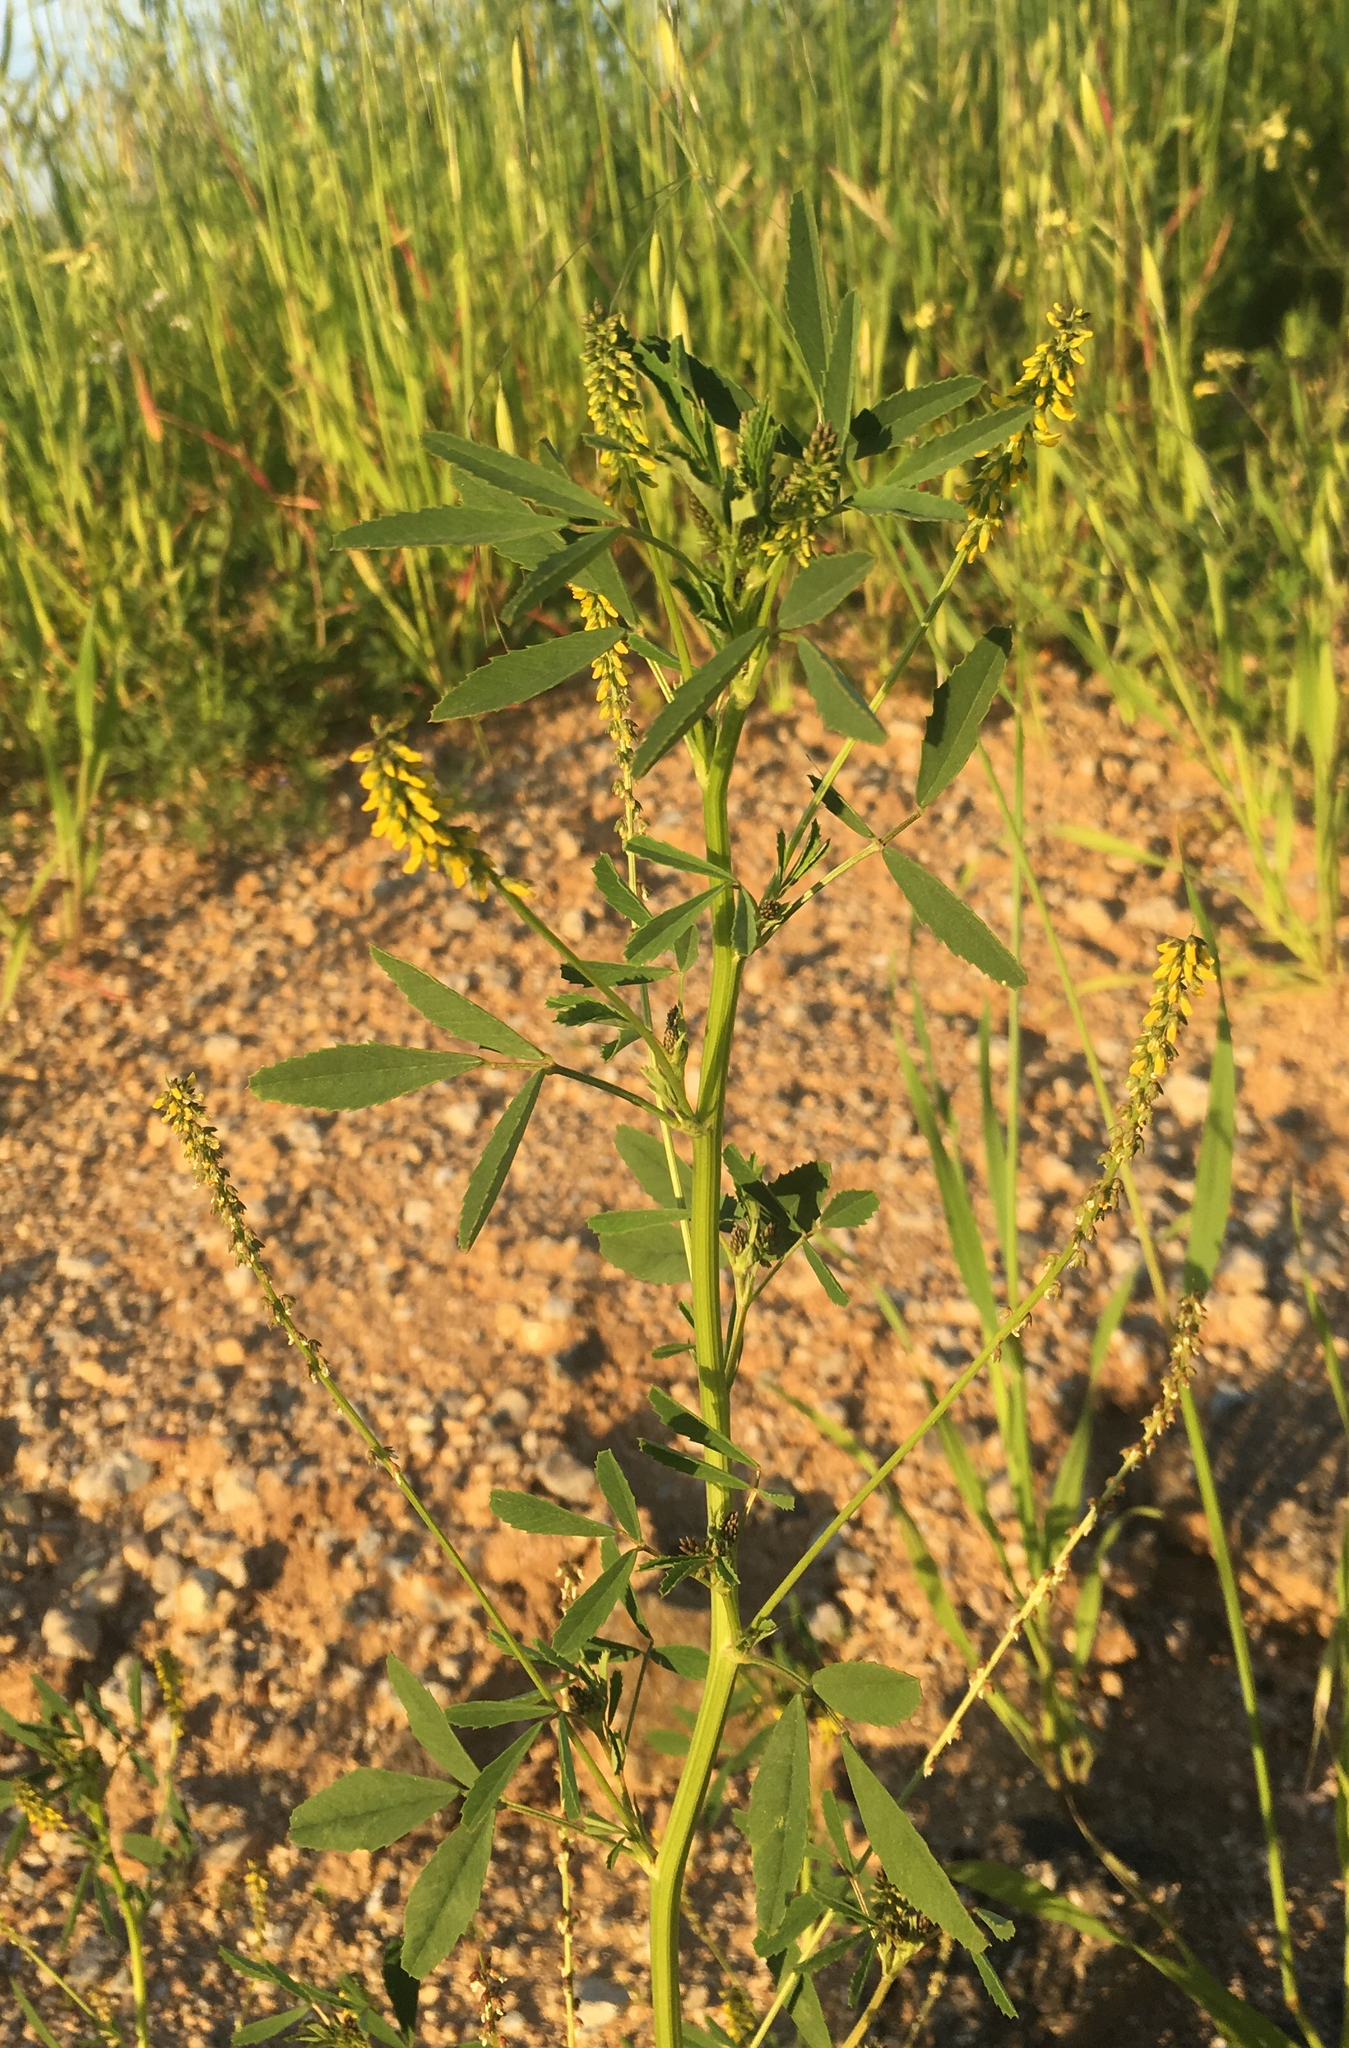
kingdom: Plantae
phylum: Tracheophyta
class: Magnoliopsida
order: Fabales
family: Fabaceae
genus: Melilotus
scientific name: Melilotus indicus
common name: Small melilot
